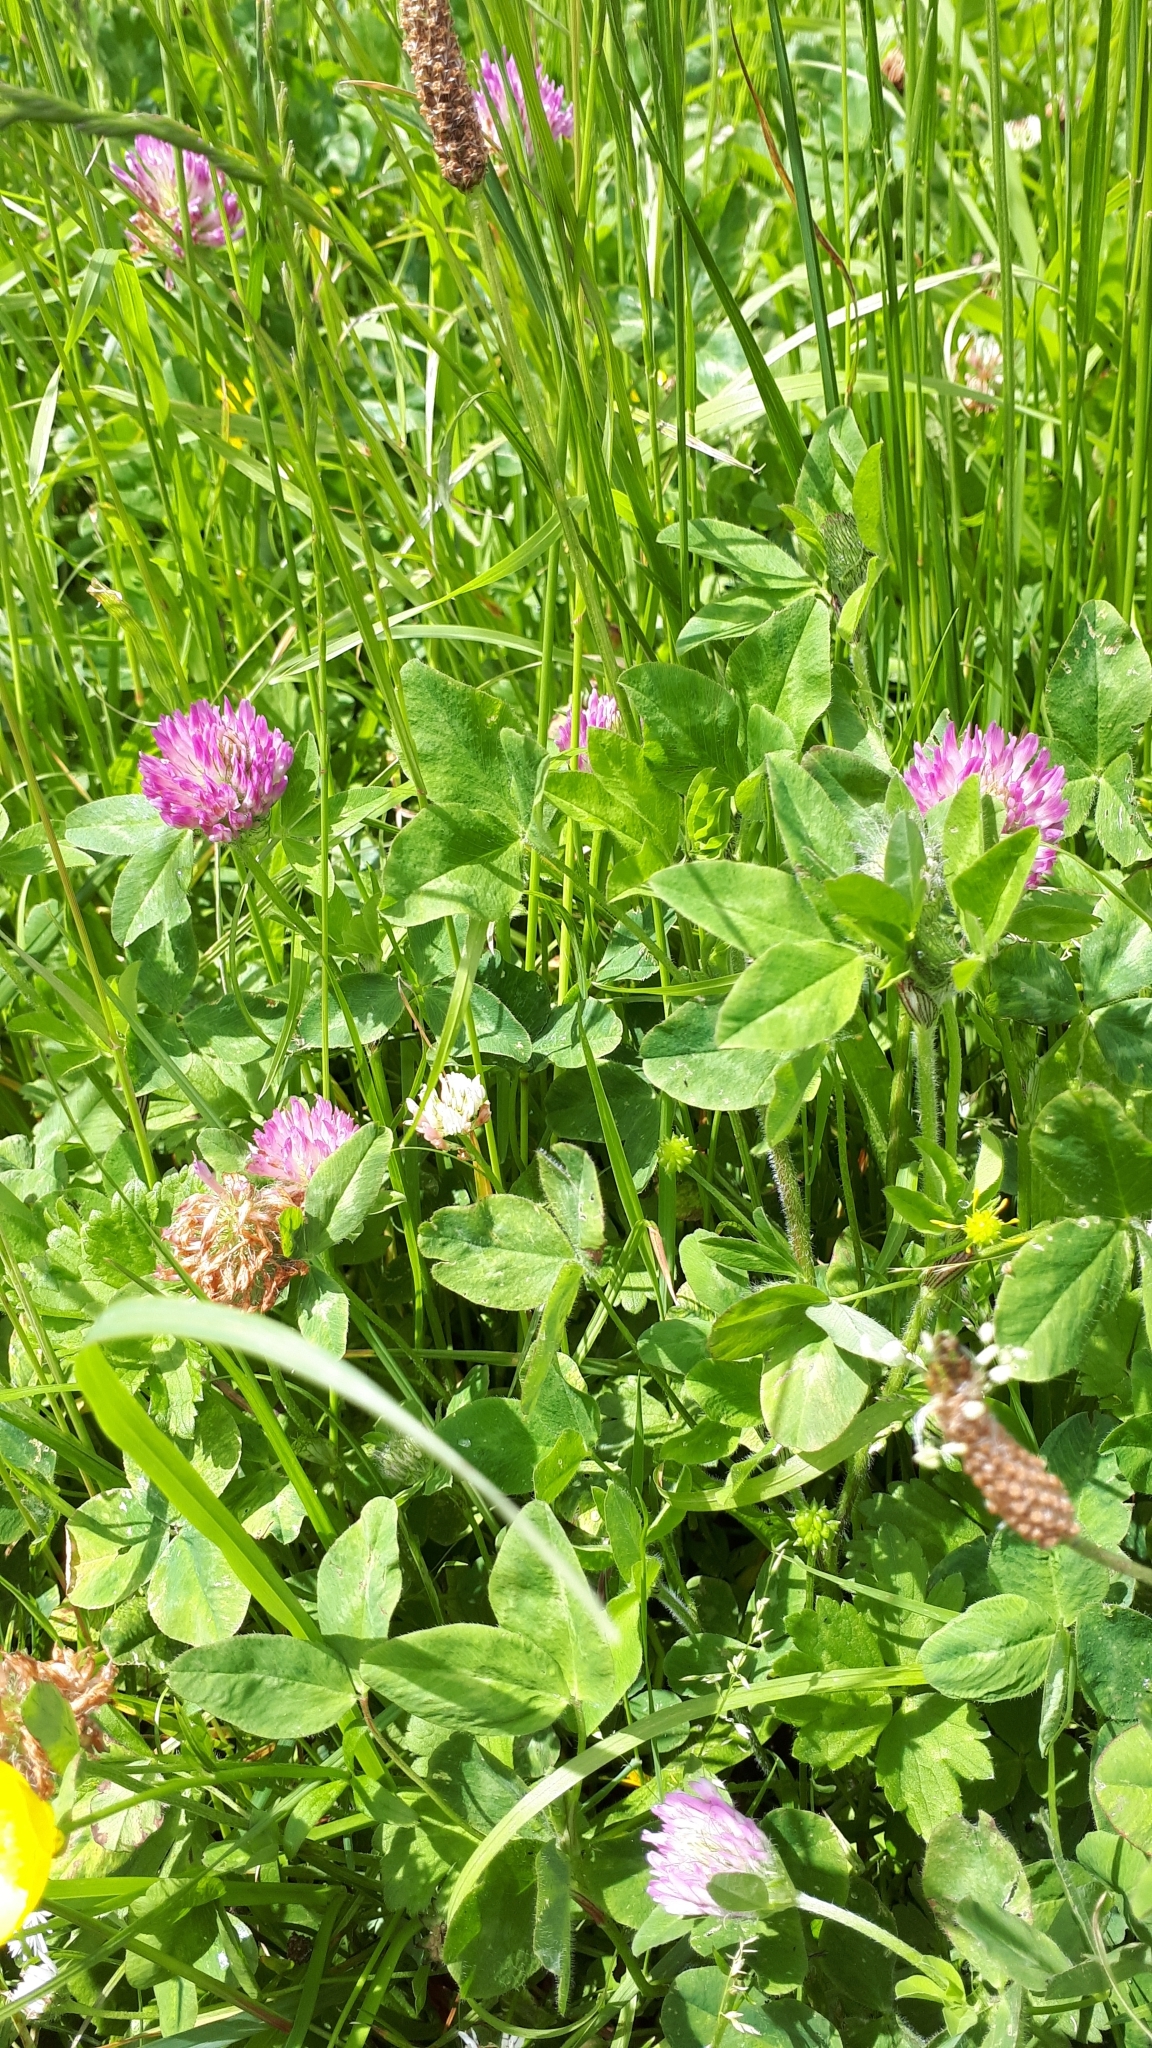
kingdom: Plantae
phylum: Tracheophyta
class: Magnoliopsida
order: Fabales
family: Fabaceae
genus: Trifolium
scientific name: Trifolium pratense
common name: Red clover
